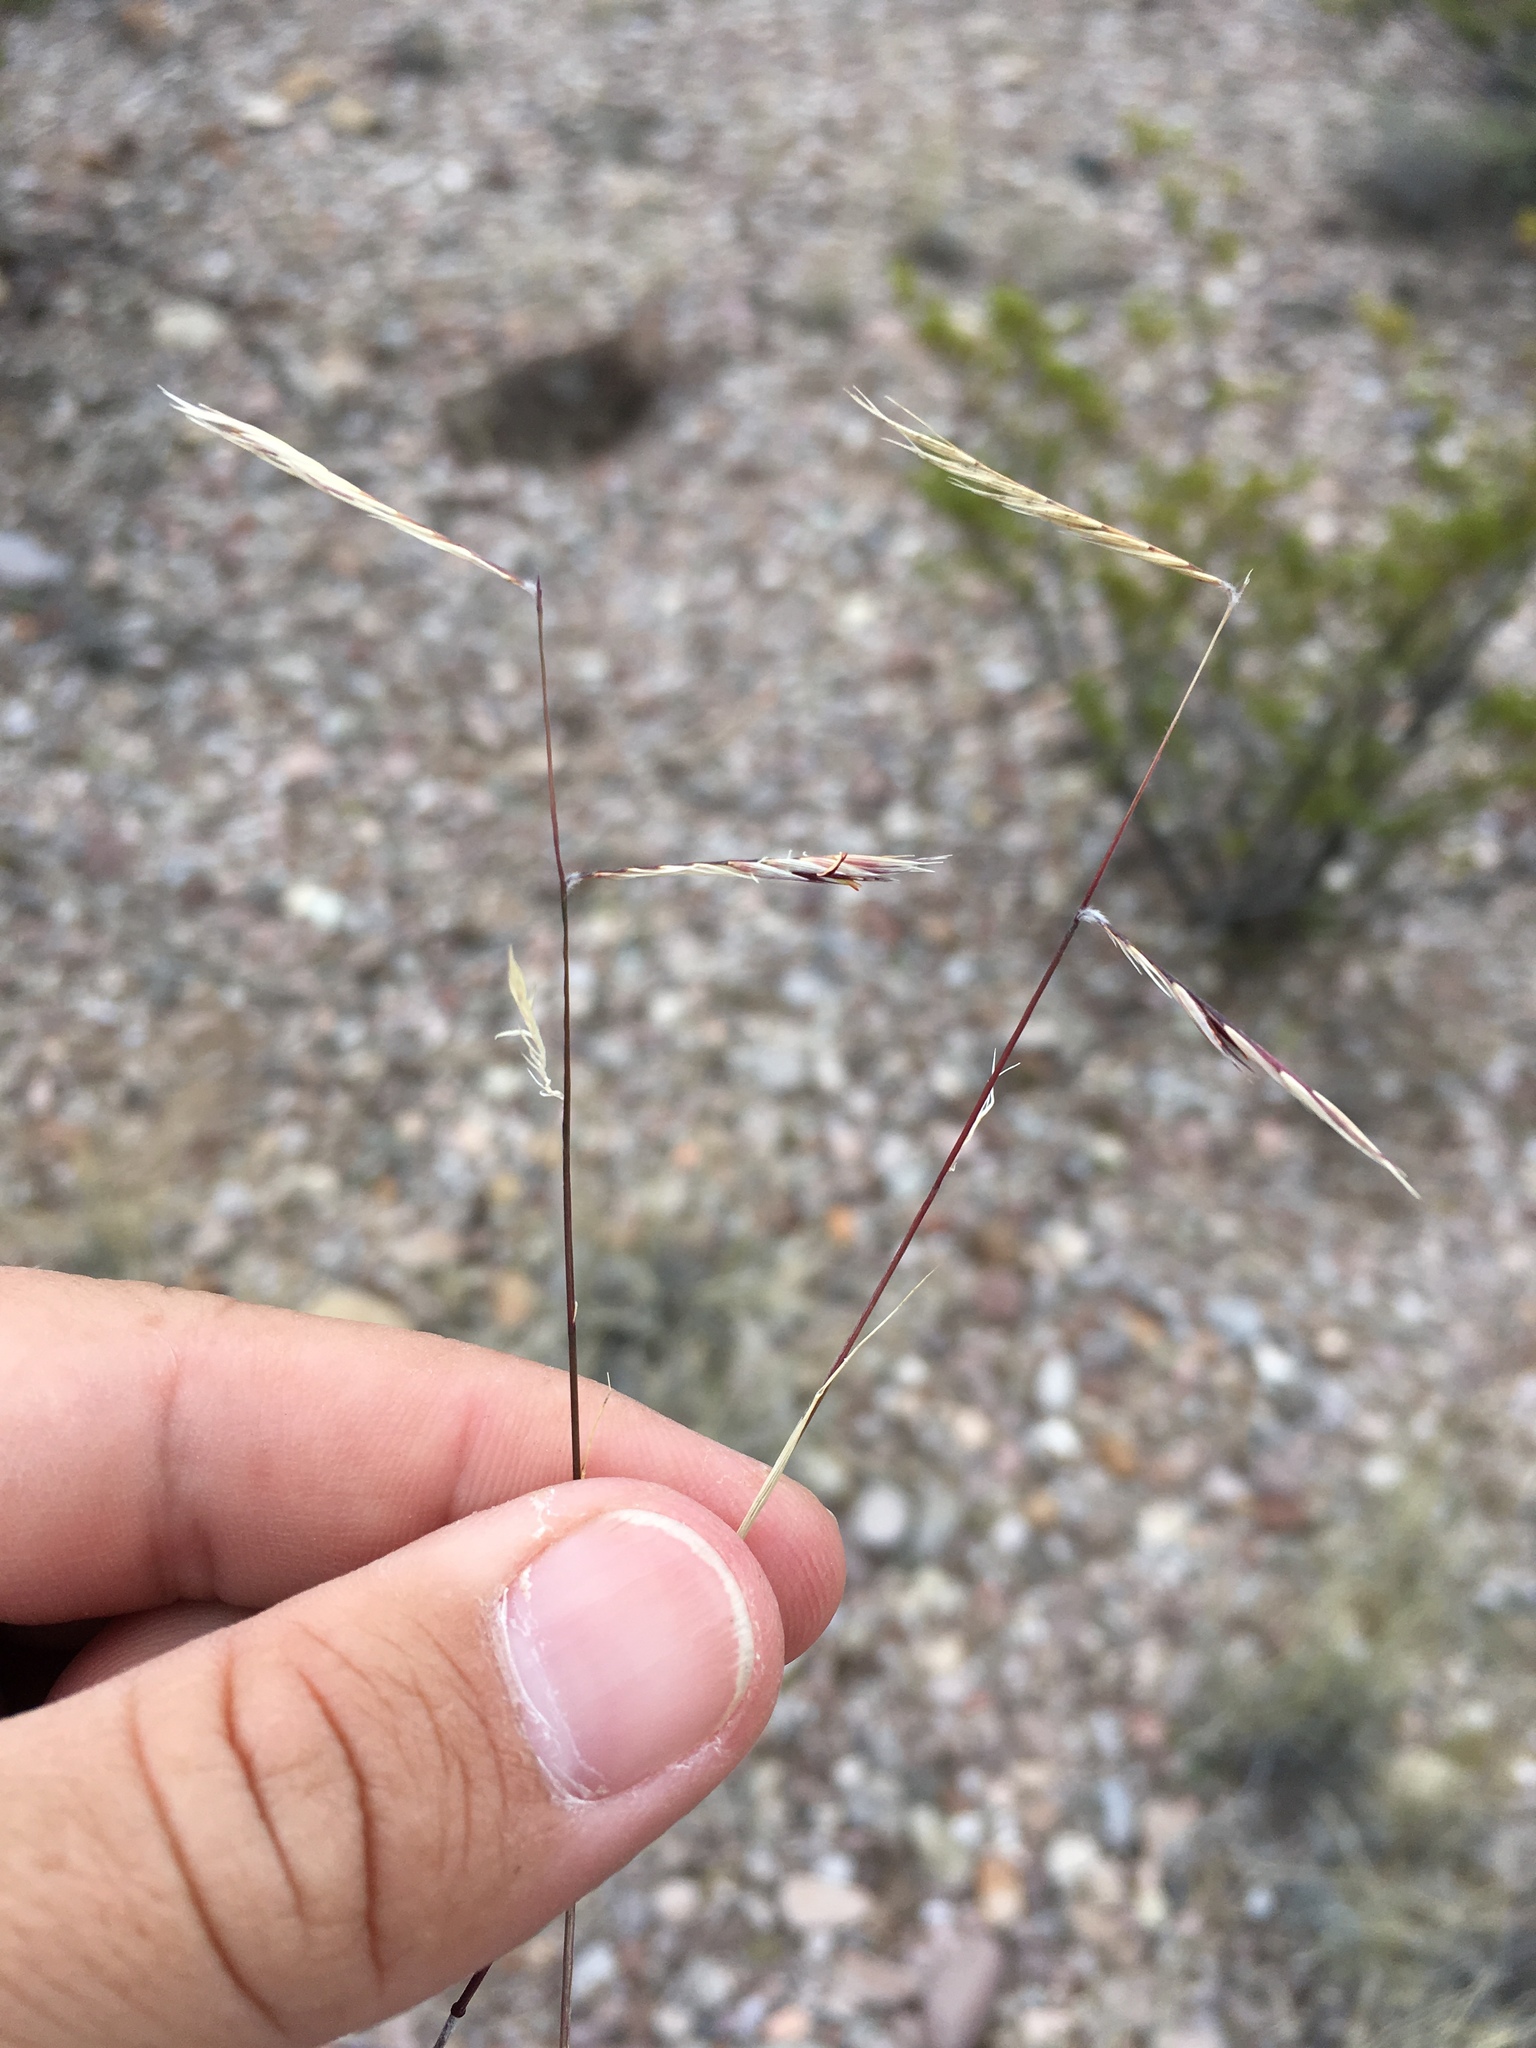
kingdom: Plantae
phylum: Tracheophyta
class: Liliopsida
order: Poales
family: Poaceae
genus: Bouteloua
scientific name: Bouteloua eriopoda
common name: Woolly foot grama
